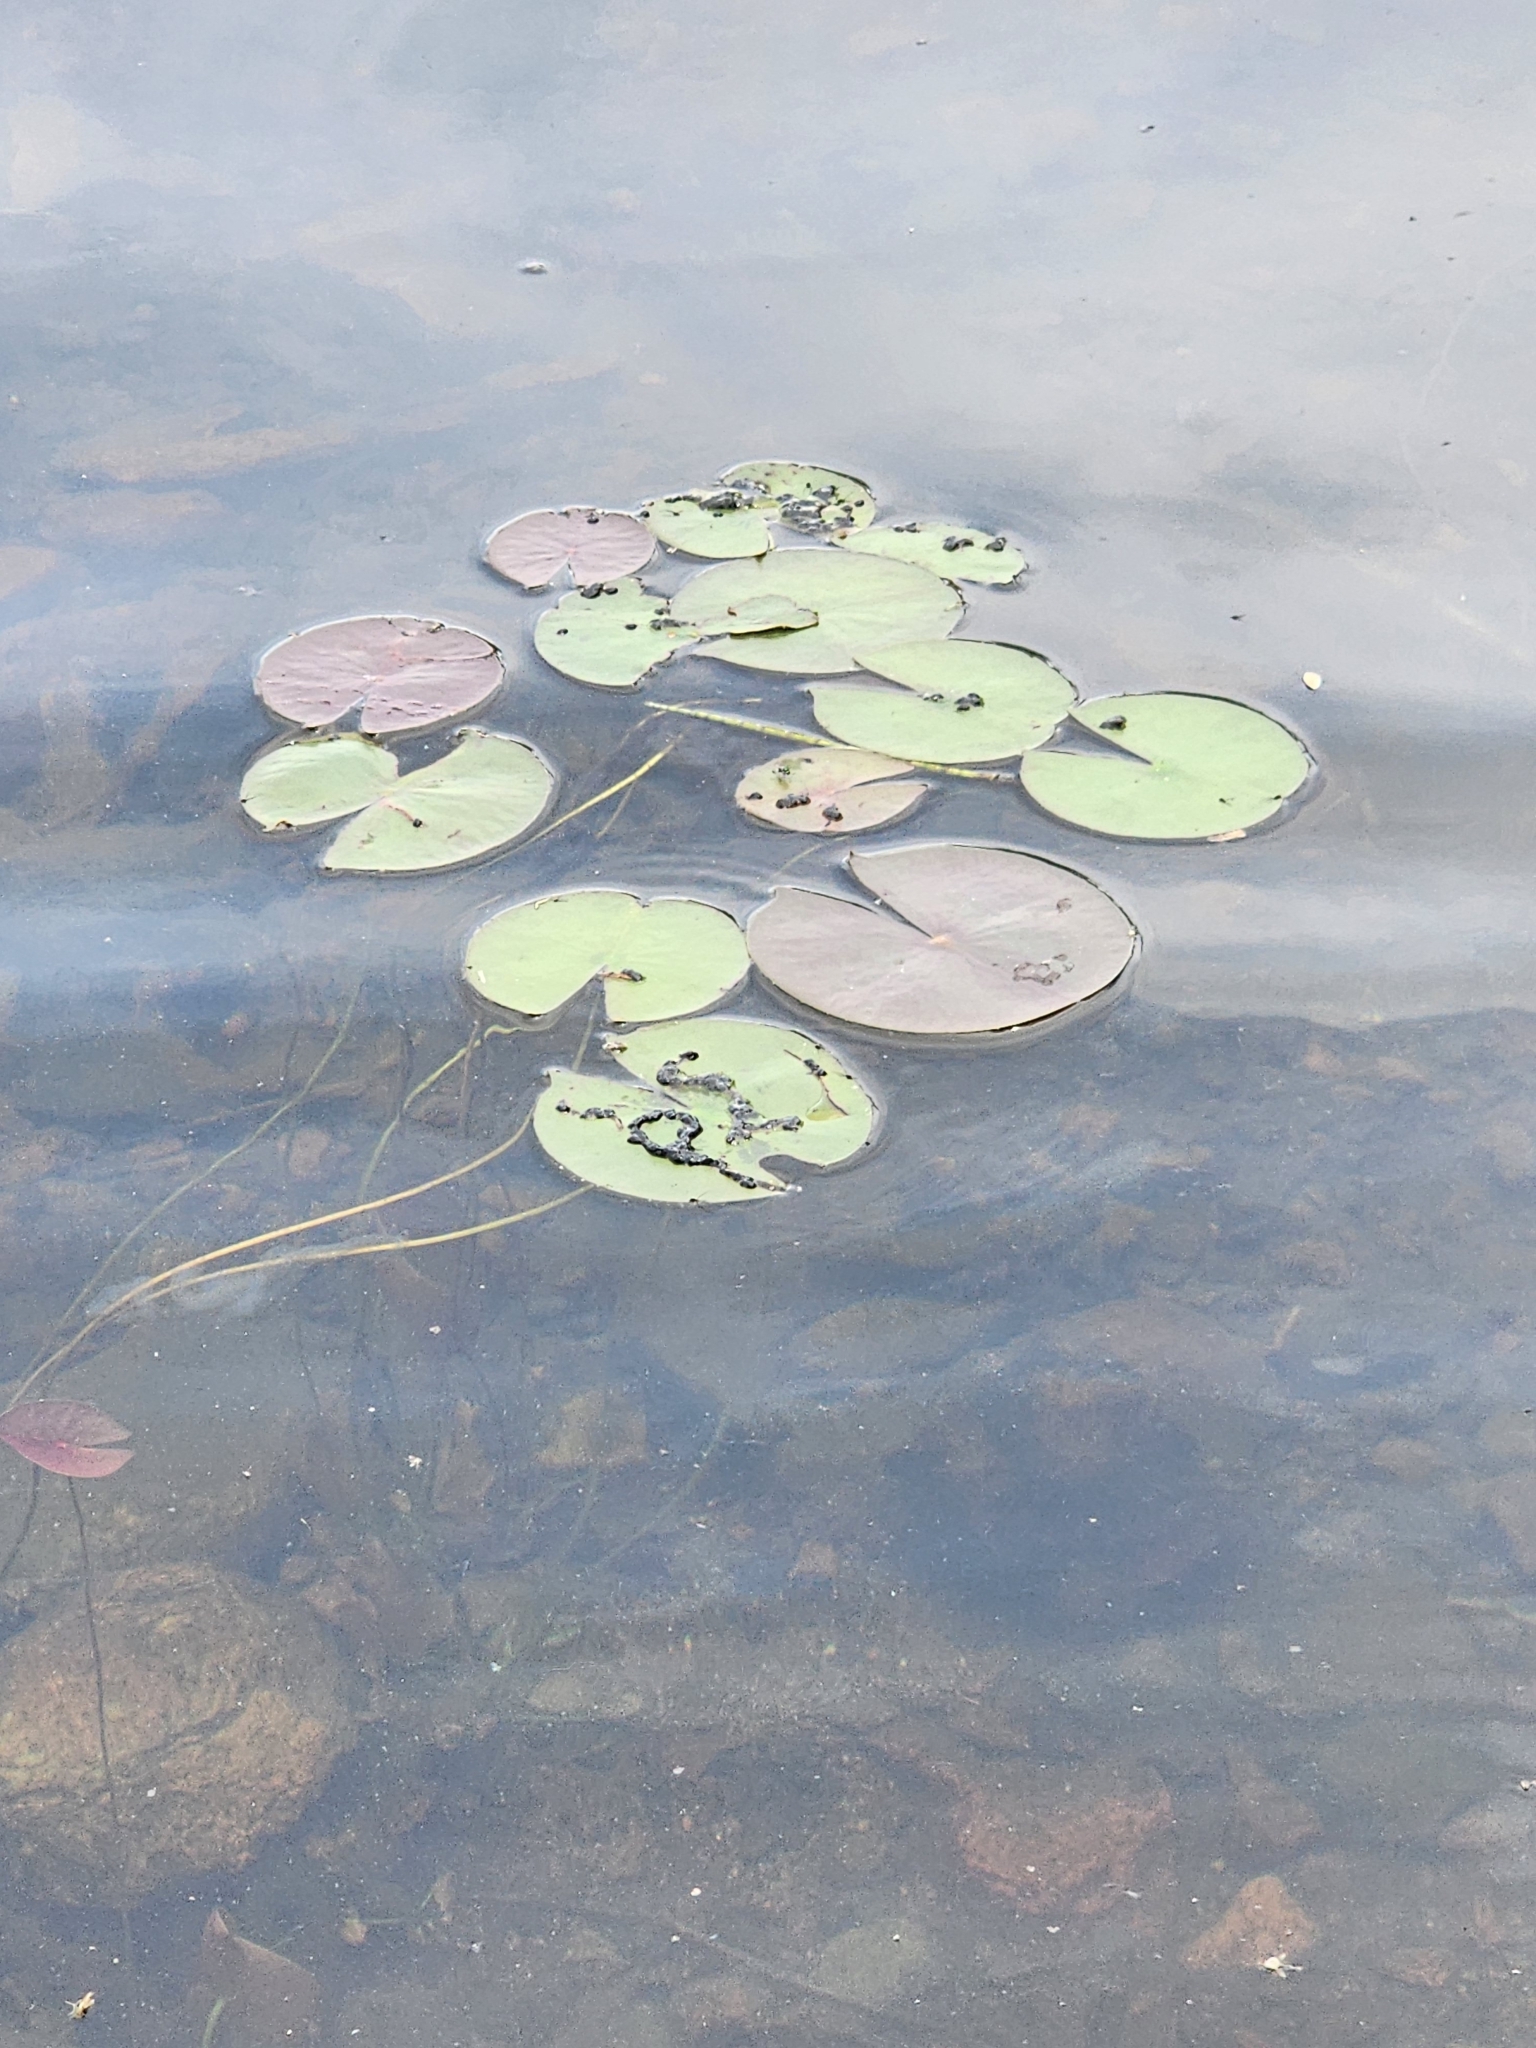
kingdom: Plantae
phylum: Tracheophyta
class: Magnoliopsida
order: Nymphaeales
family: Nymphaeaceae
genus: Nymphaea
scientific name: Nymphaea odorata
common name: Fragrant water-lily
